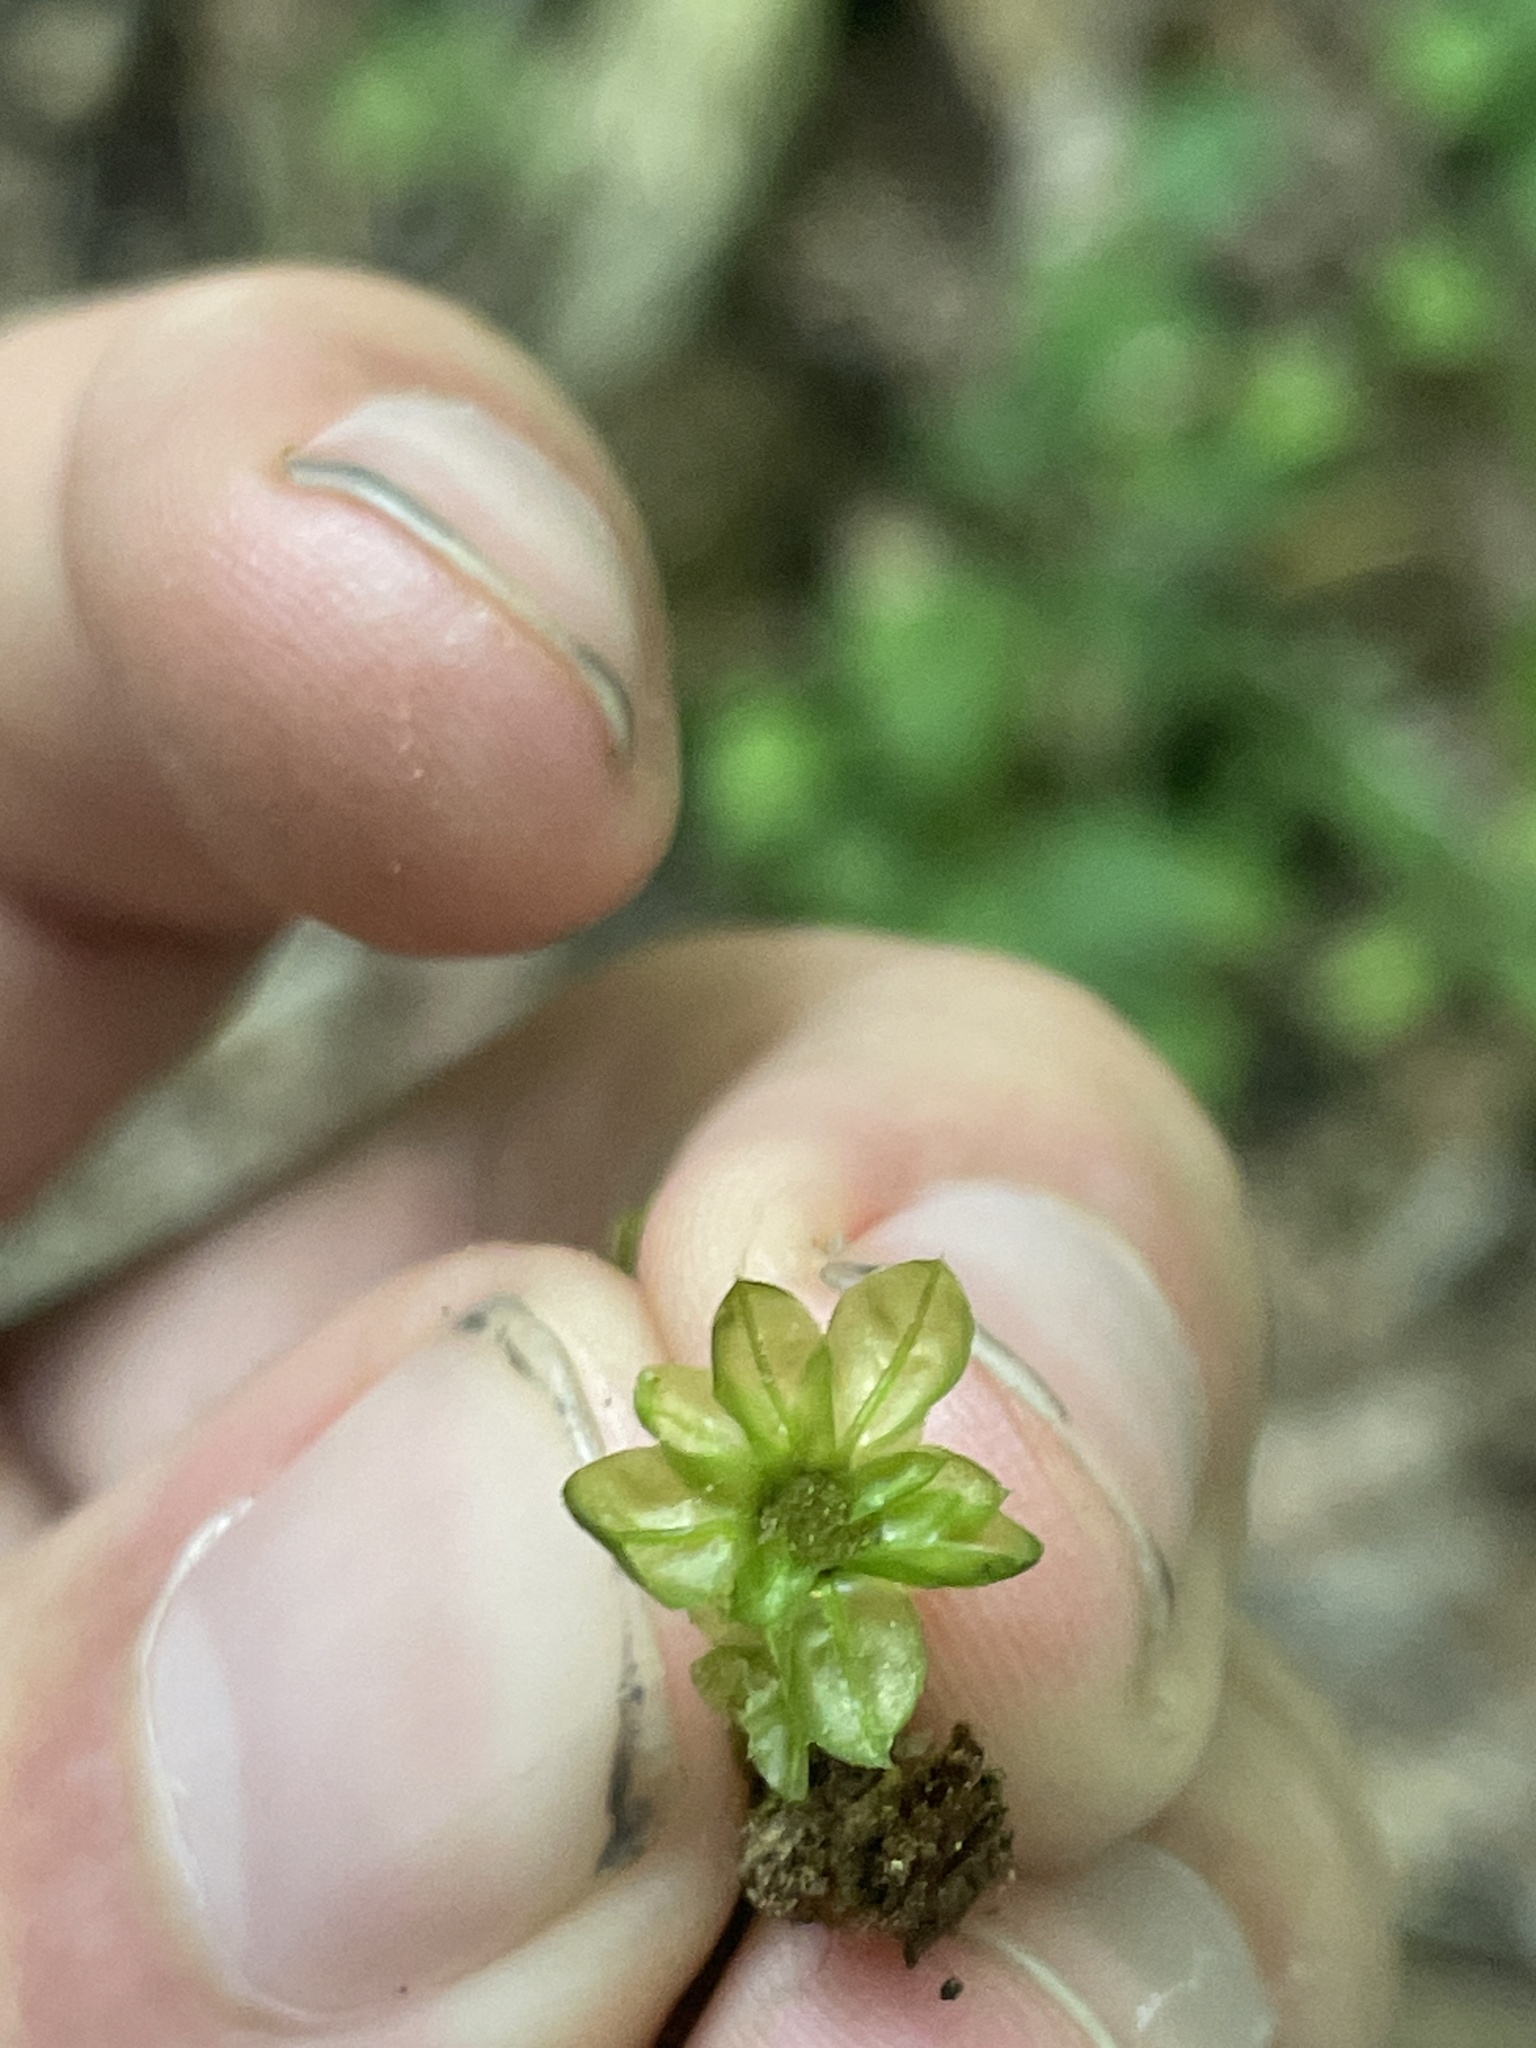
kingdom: Plantae
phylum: Bryophyta
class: Bryopsida
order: Bryales
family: Mniaceae
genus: Plagiomnium
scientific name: Plagiomnium ciliare
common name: Toothed leafy moss
